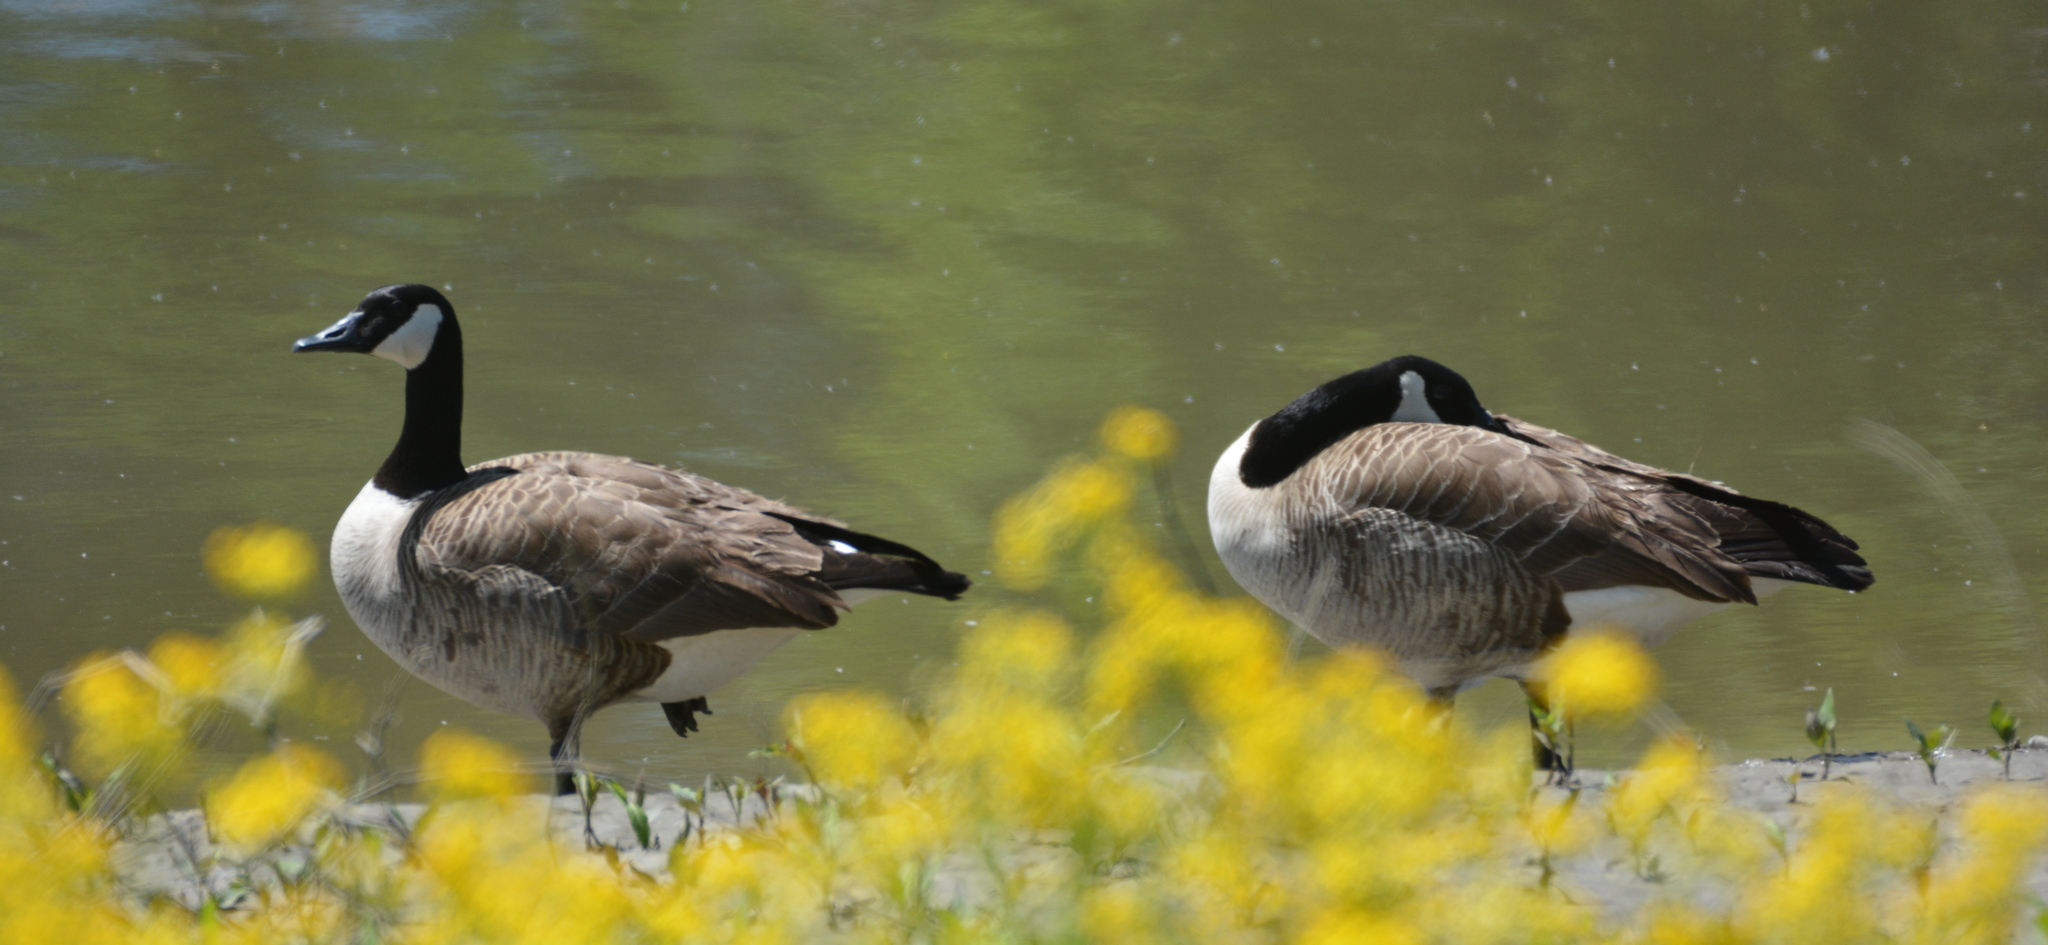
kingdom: Animalia
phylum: Chordata
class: Aves
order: Anseriformes
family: Anatidae
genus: Branta
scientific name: Branta canadensis
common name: Canada goose
